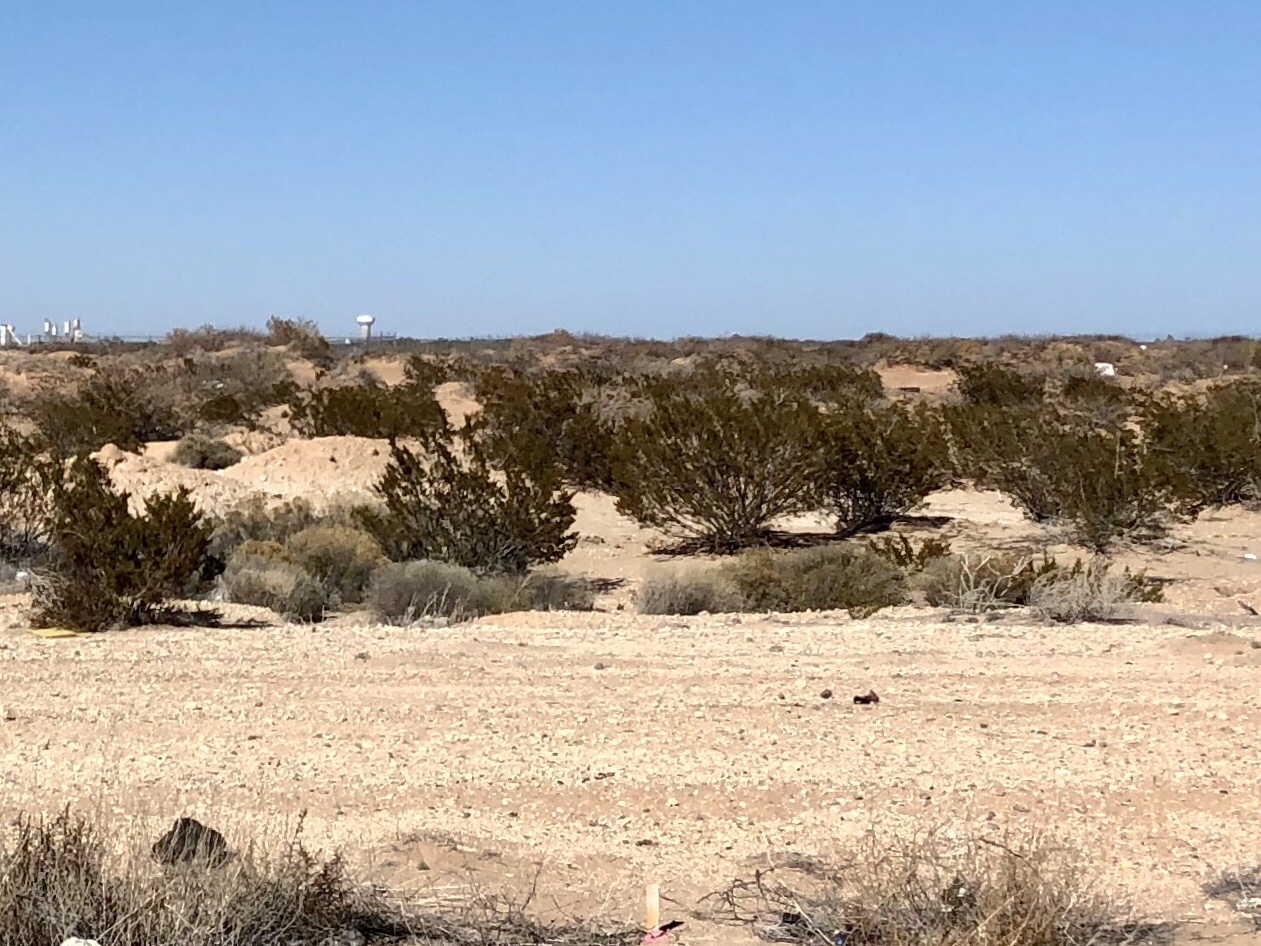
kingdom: Plantae
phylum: Tracheophyta
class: Magnoliopsida
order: Zygophyllales
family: Zygophyllaceae
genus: Larrea
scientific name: Larrea tridentata
